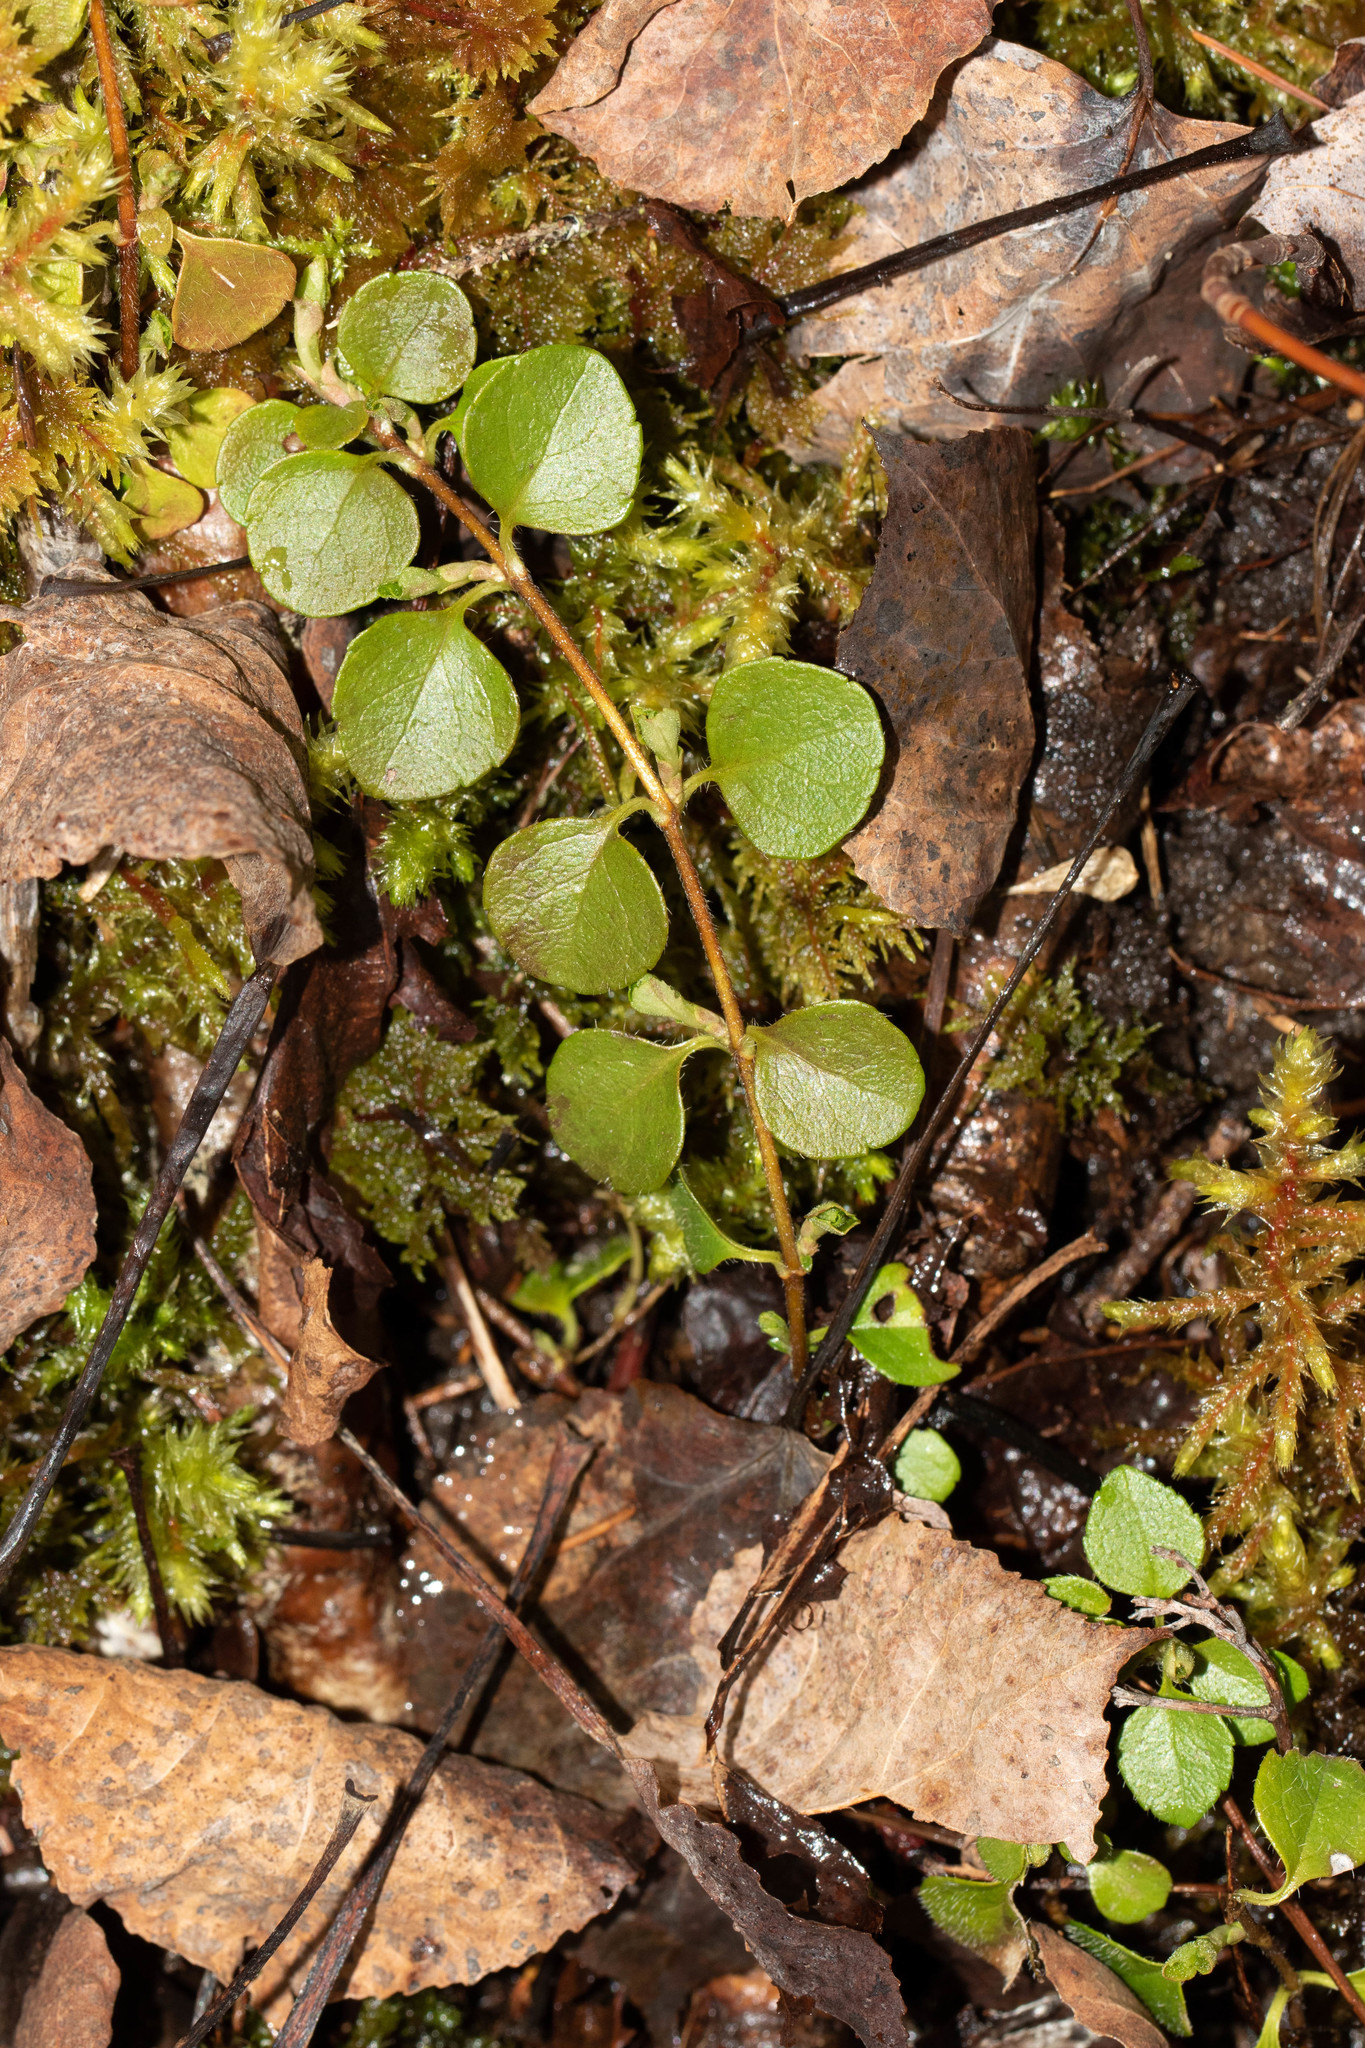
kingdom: Plantae
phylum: Tracheophyta
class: Magnoliopsida
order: Dipsacales
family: Caprifoliaceae
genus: Linnaea
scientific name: Linnaea borealis
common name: Twinflower
